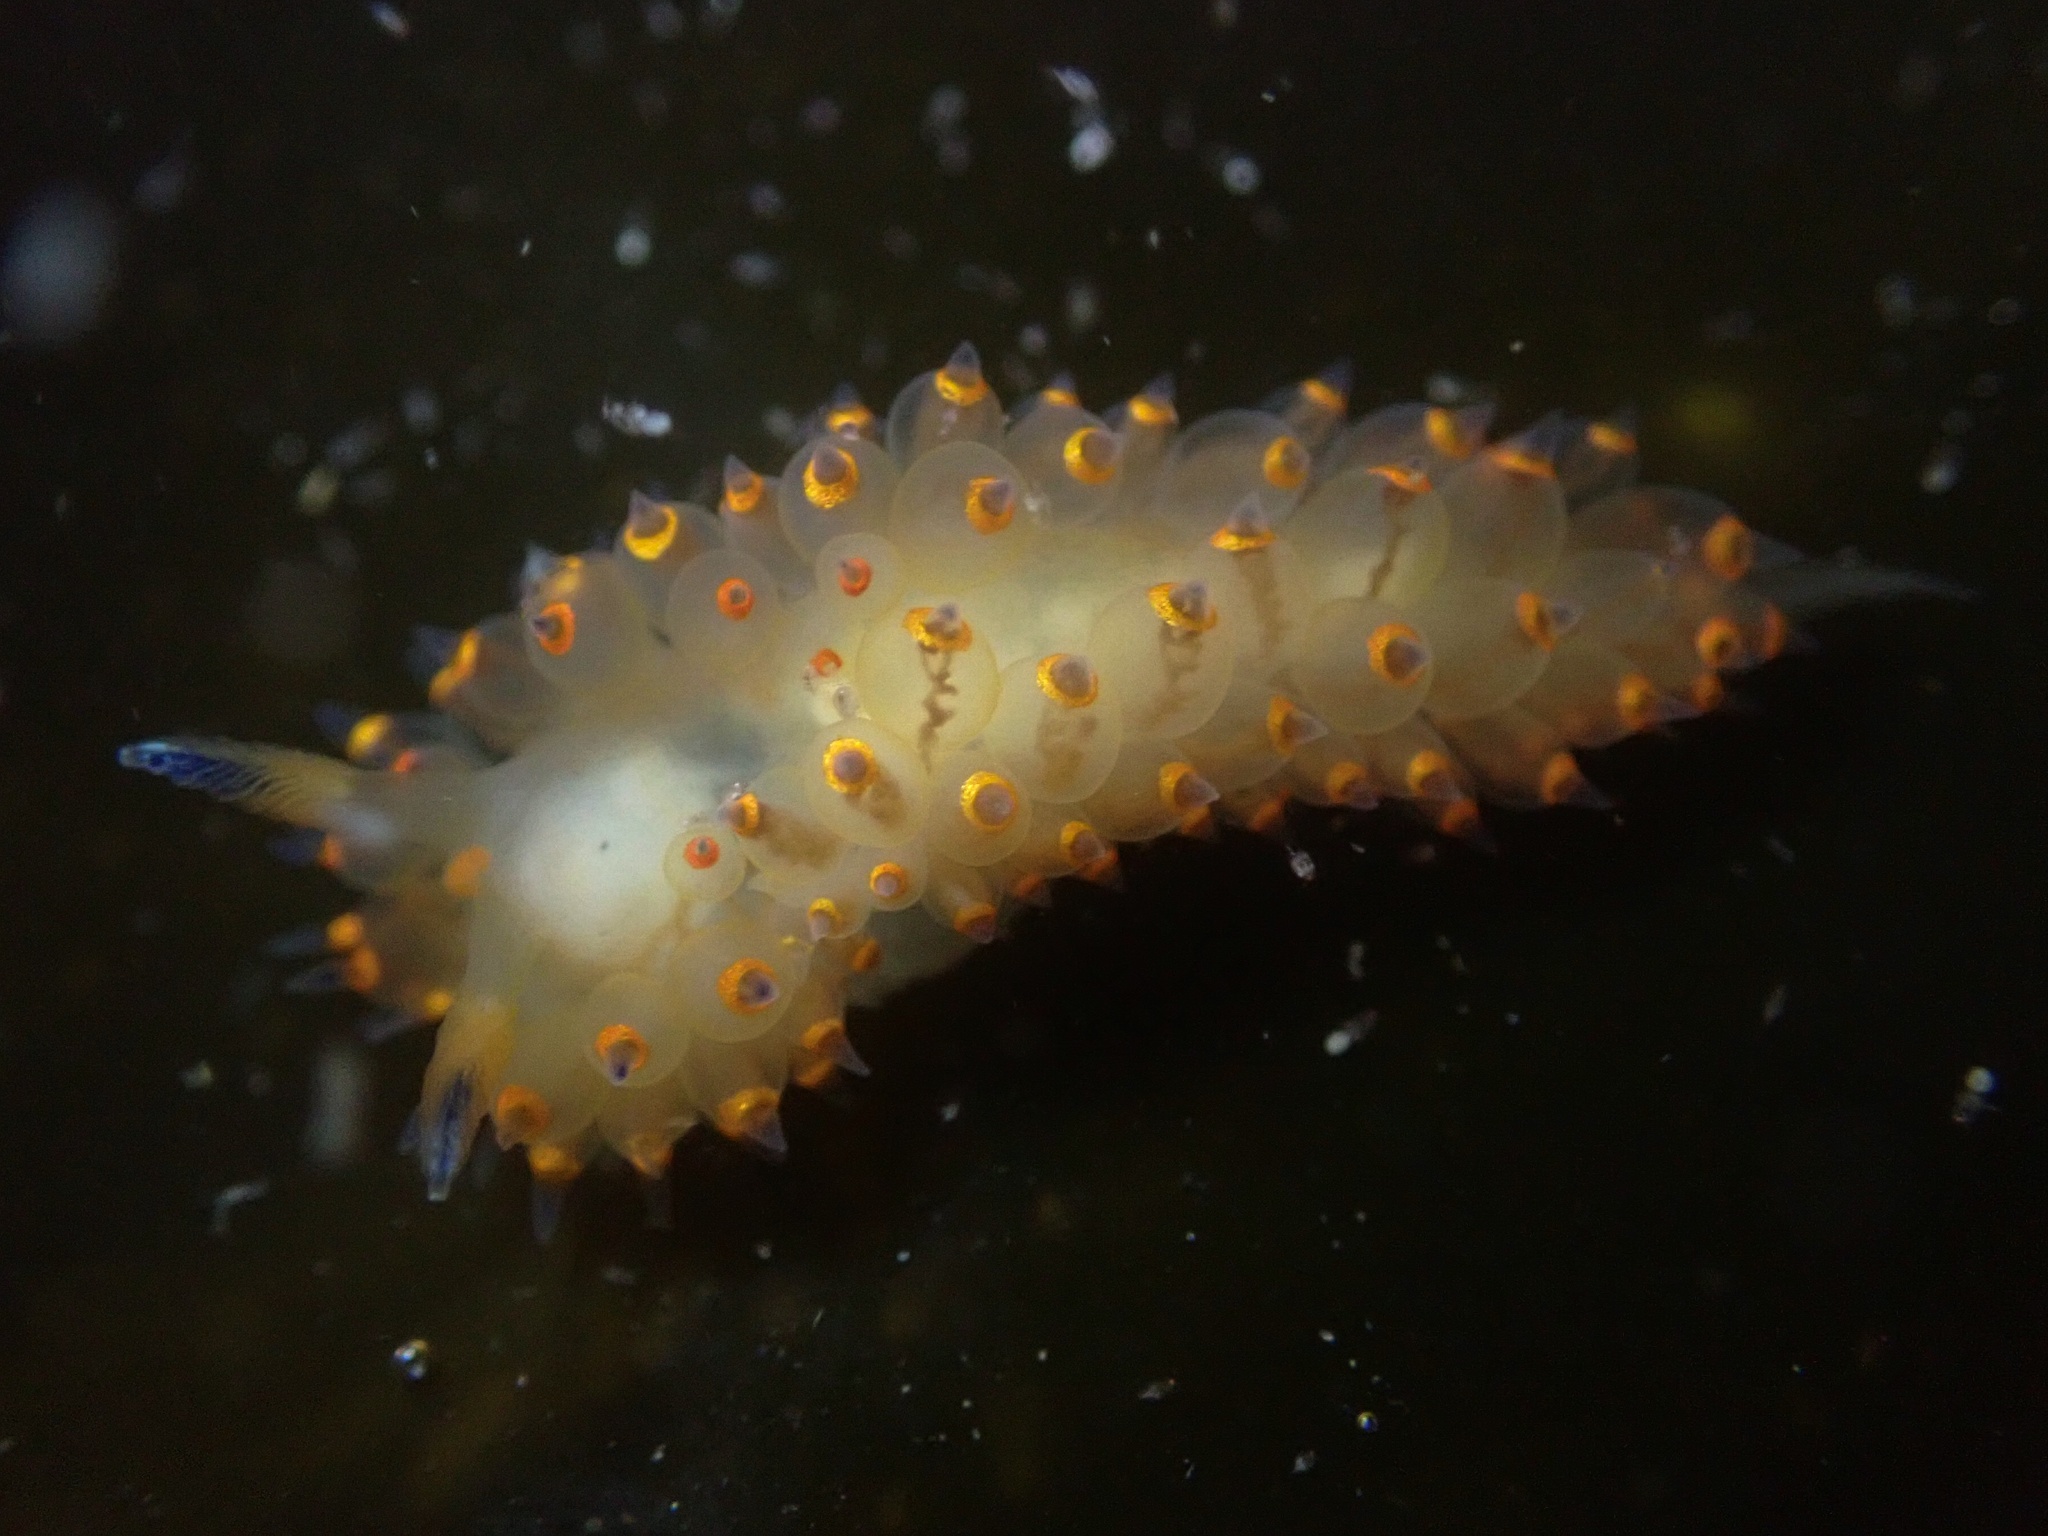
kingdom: Animalia
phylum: Mollusca
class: Gastropoda
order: Nudibranchia
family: Janolidae
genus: Antiopella
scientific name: Antiopella barbarensis
